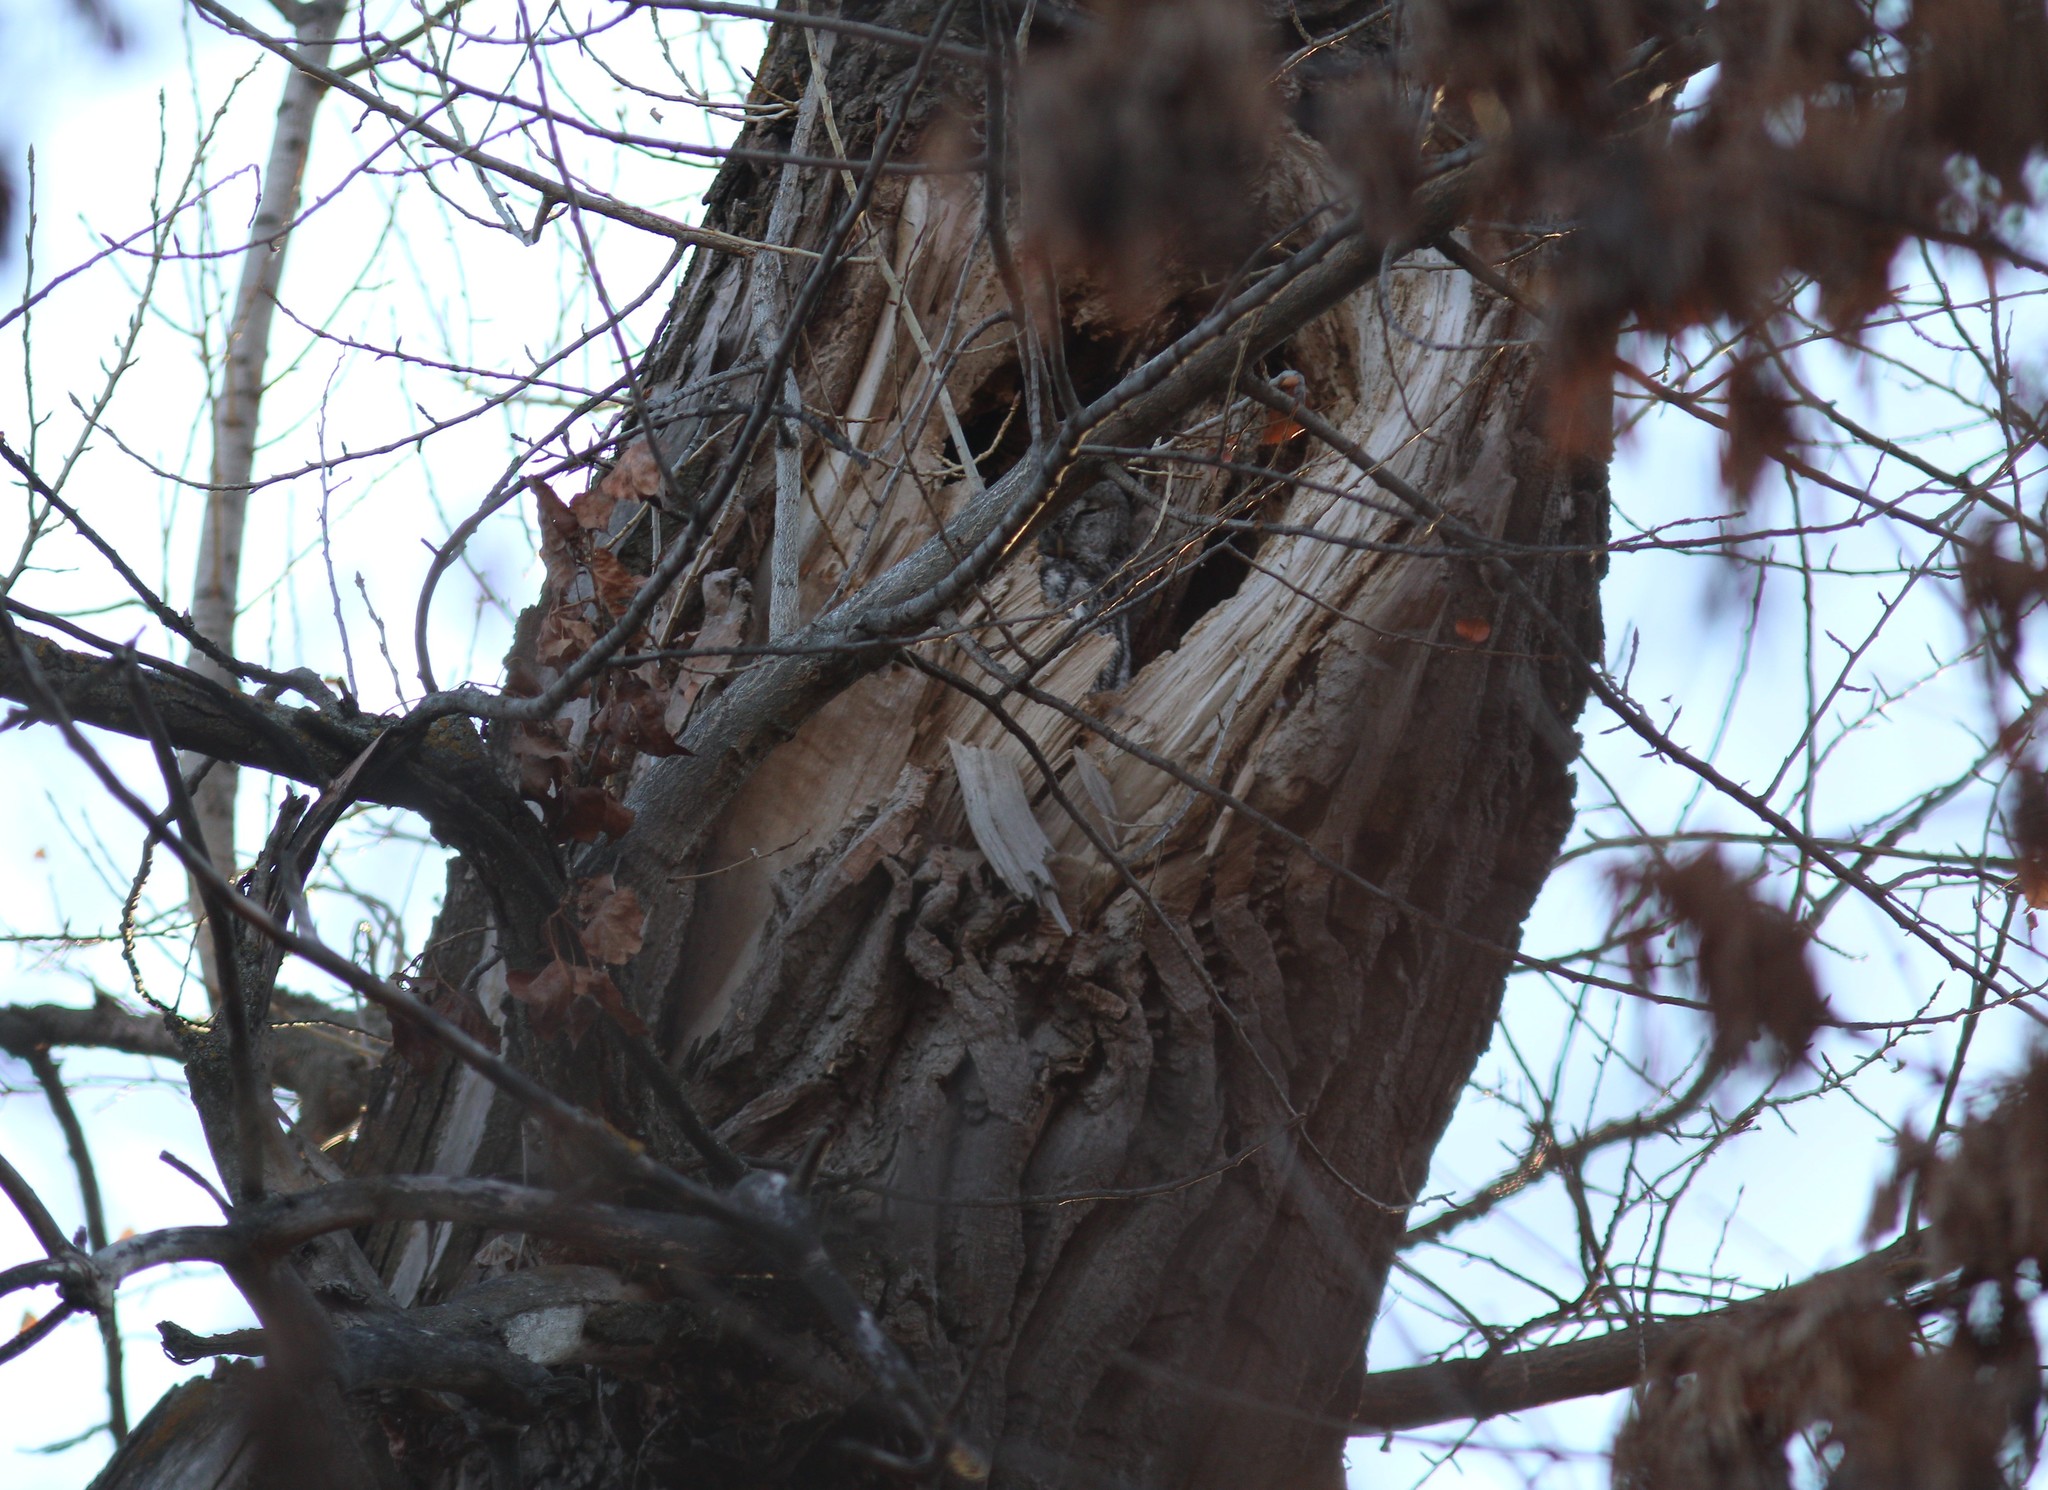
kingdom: Animalia
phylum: Chordata
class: Aves
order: Strigiformes
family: Strigidae
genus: Strix
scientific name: Strix aluco
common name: Tawny owl
